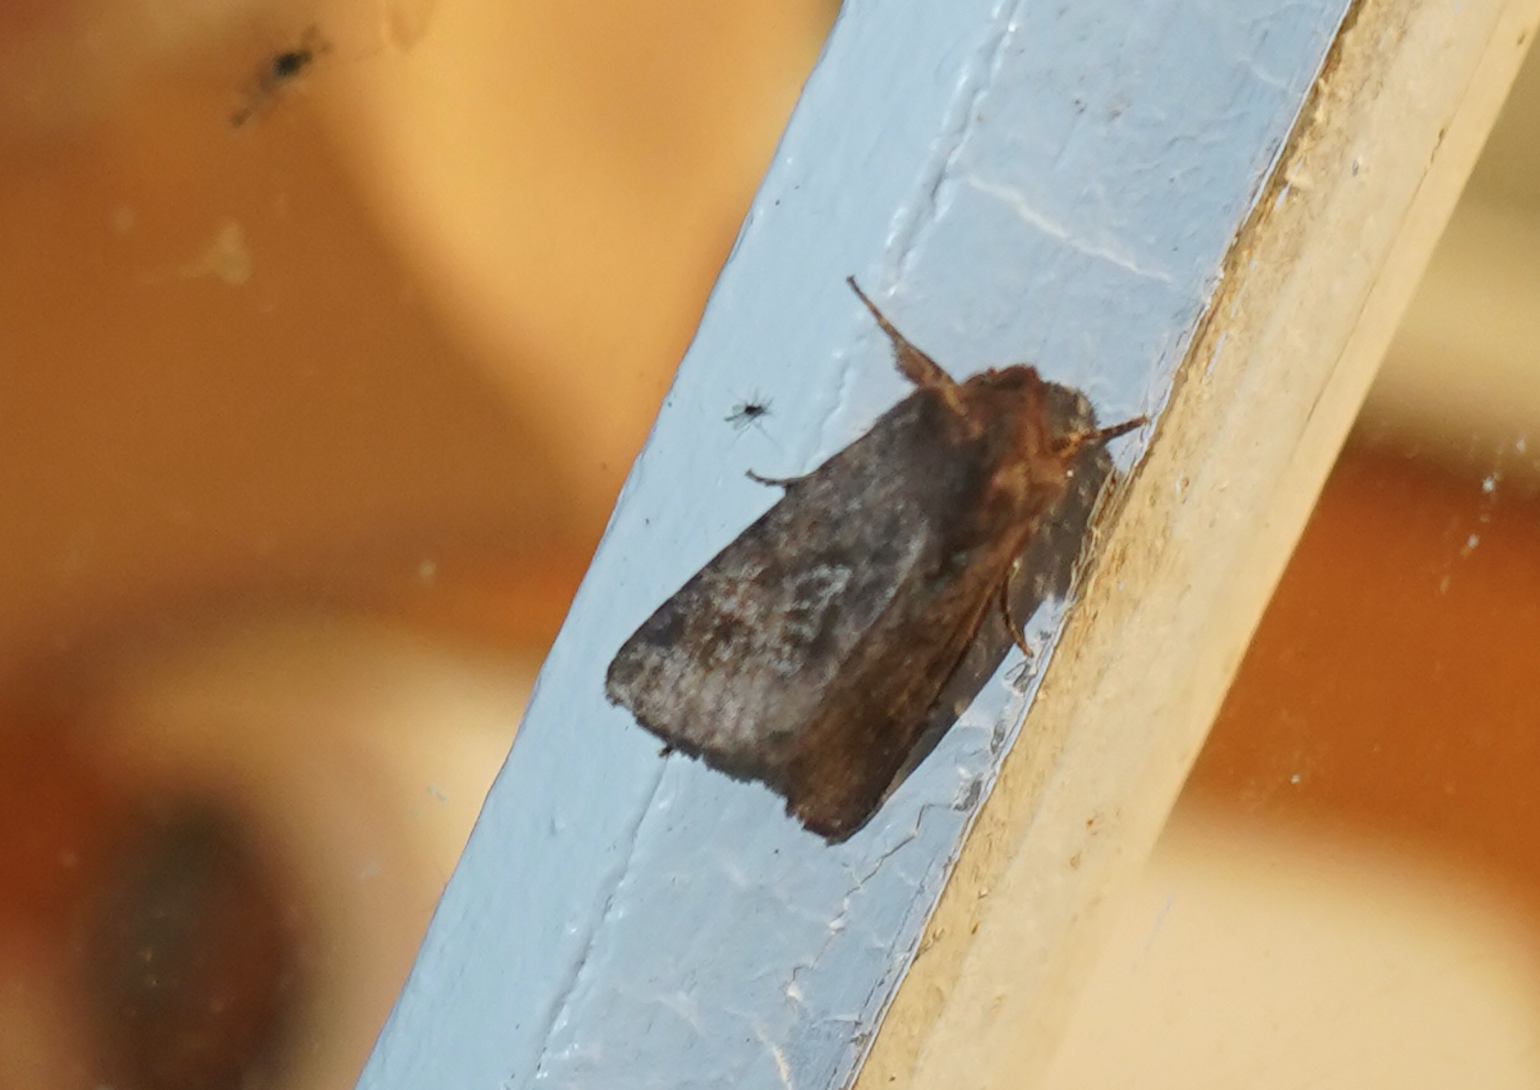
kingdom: Animalia
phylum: Arthropoda
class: Insecta
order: Lepidoptera
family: Noctuidae
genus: Nephelodes
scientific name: Nephelodes minians
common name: Bronzed cutworm
